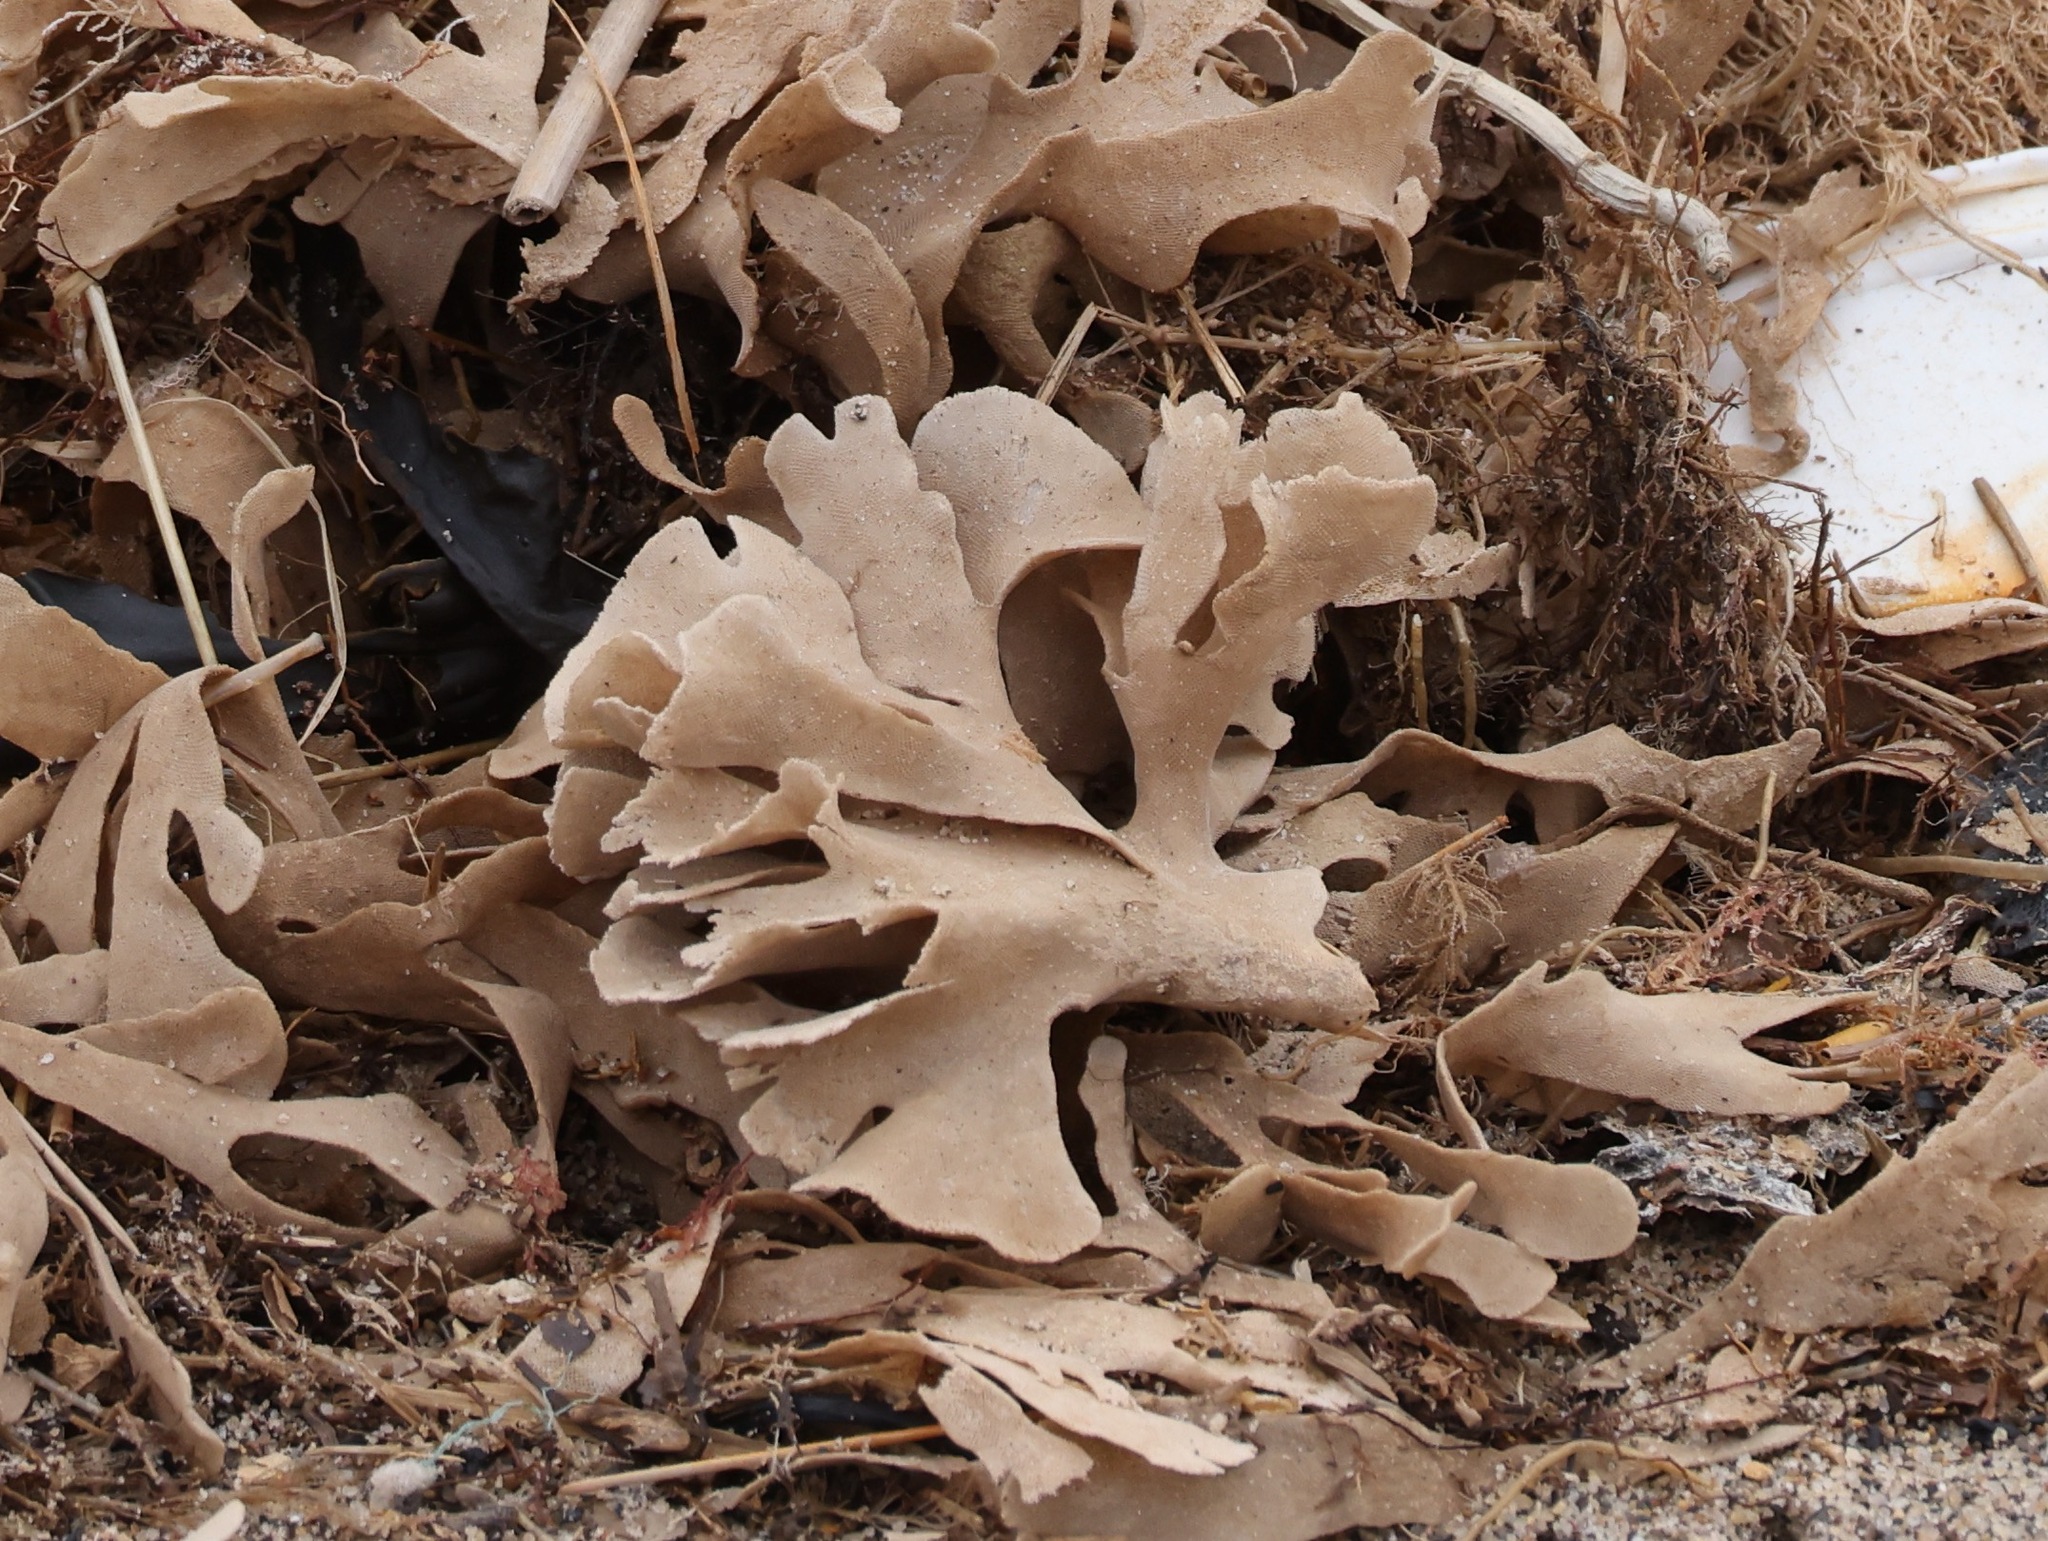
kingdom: Animalia
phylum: Bryozoa
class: Gymnolaemata
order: Cheilostomatida
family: Flustridae
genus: Flustra
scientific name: Flustra foliacea
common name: Hornwrack
